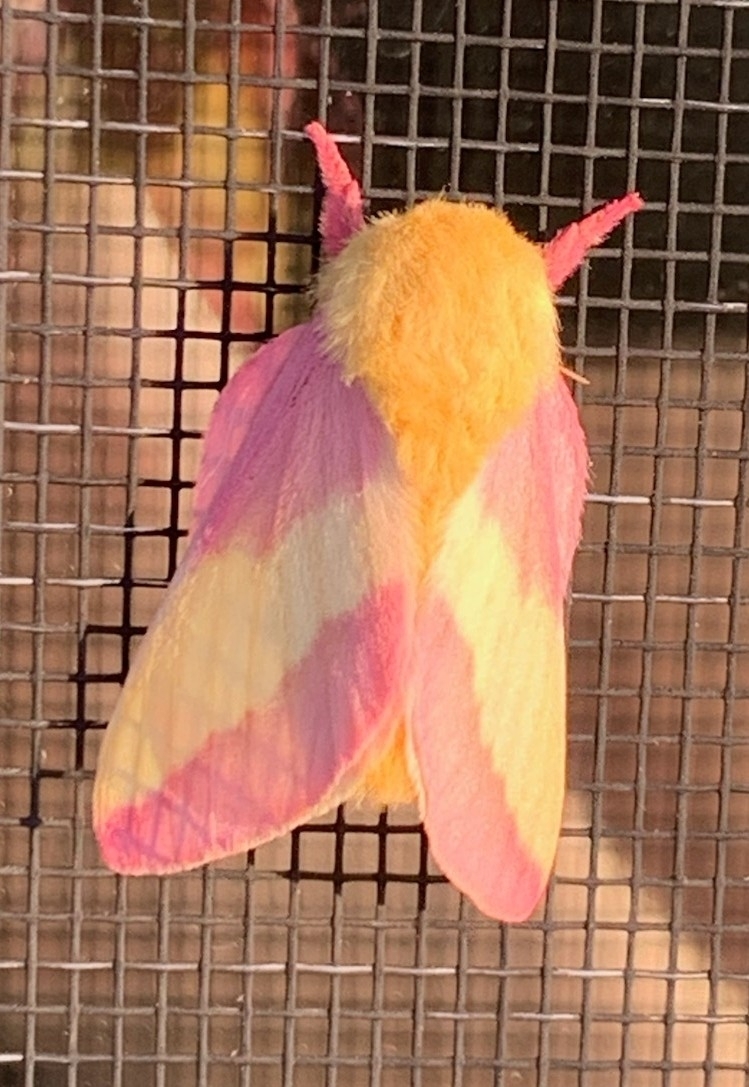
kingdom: Animalia
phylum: Arthropoda
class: Insecta
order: Lepidoptera
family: Saturniidae
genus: Dryocampa
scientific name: Dryocampa rubicunda
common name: Rosy maple moth
